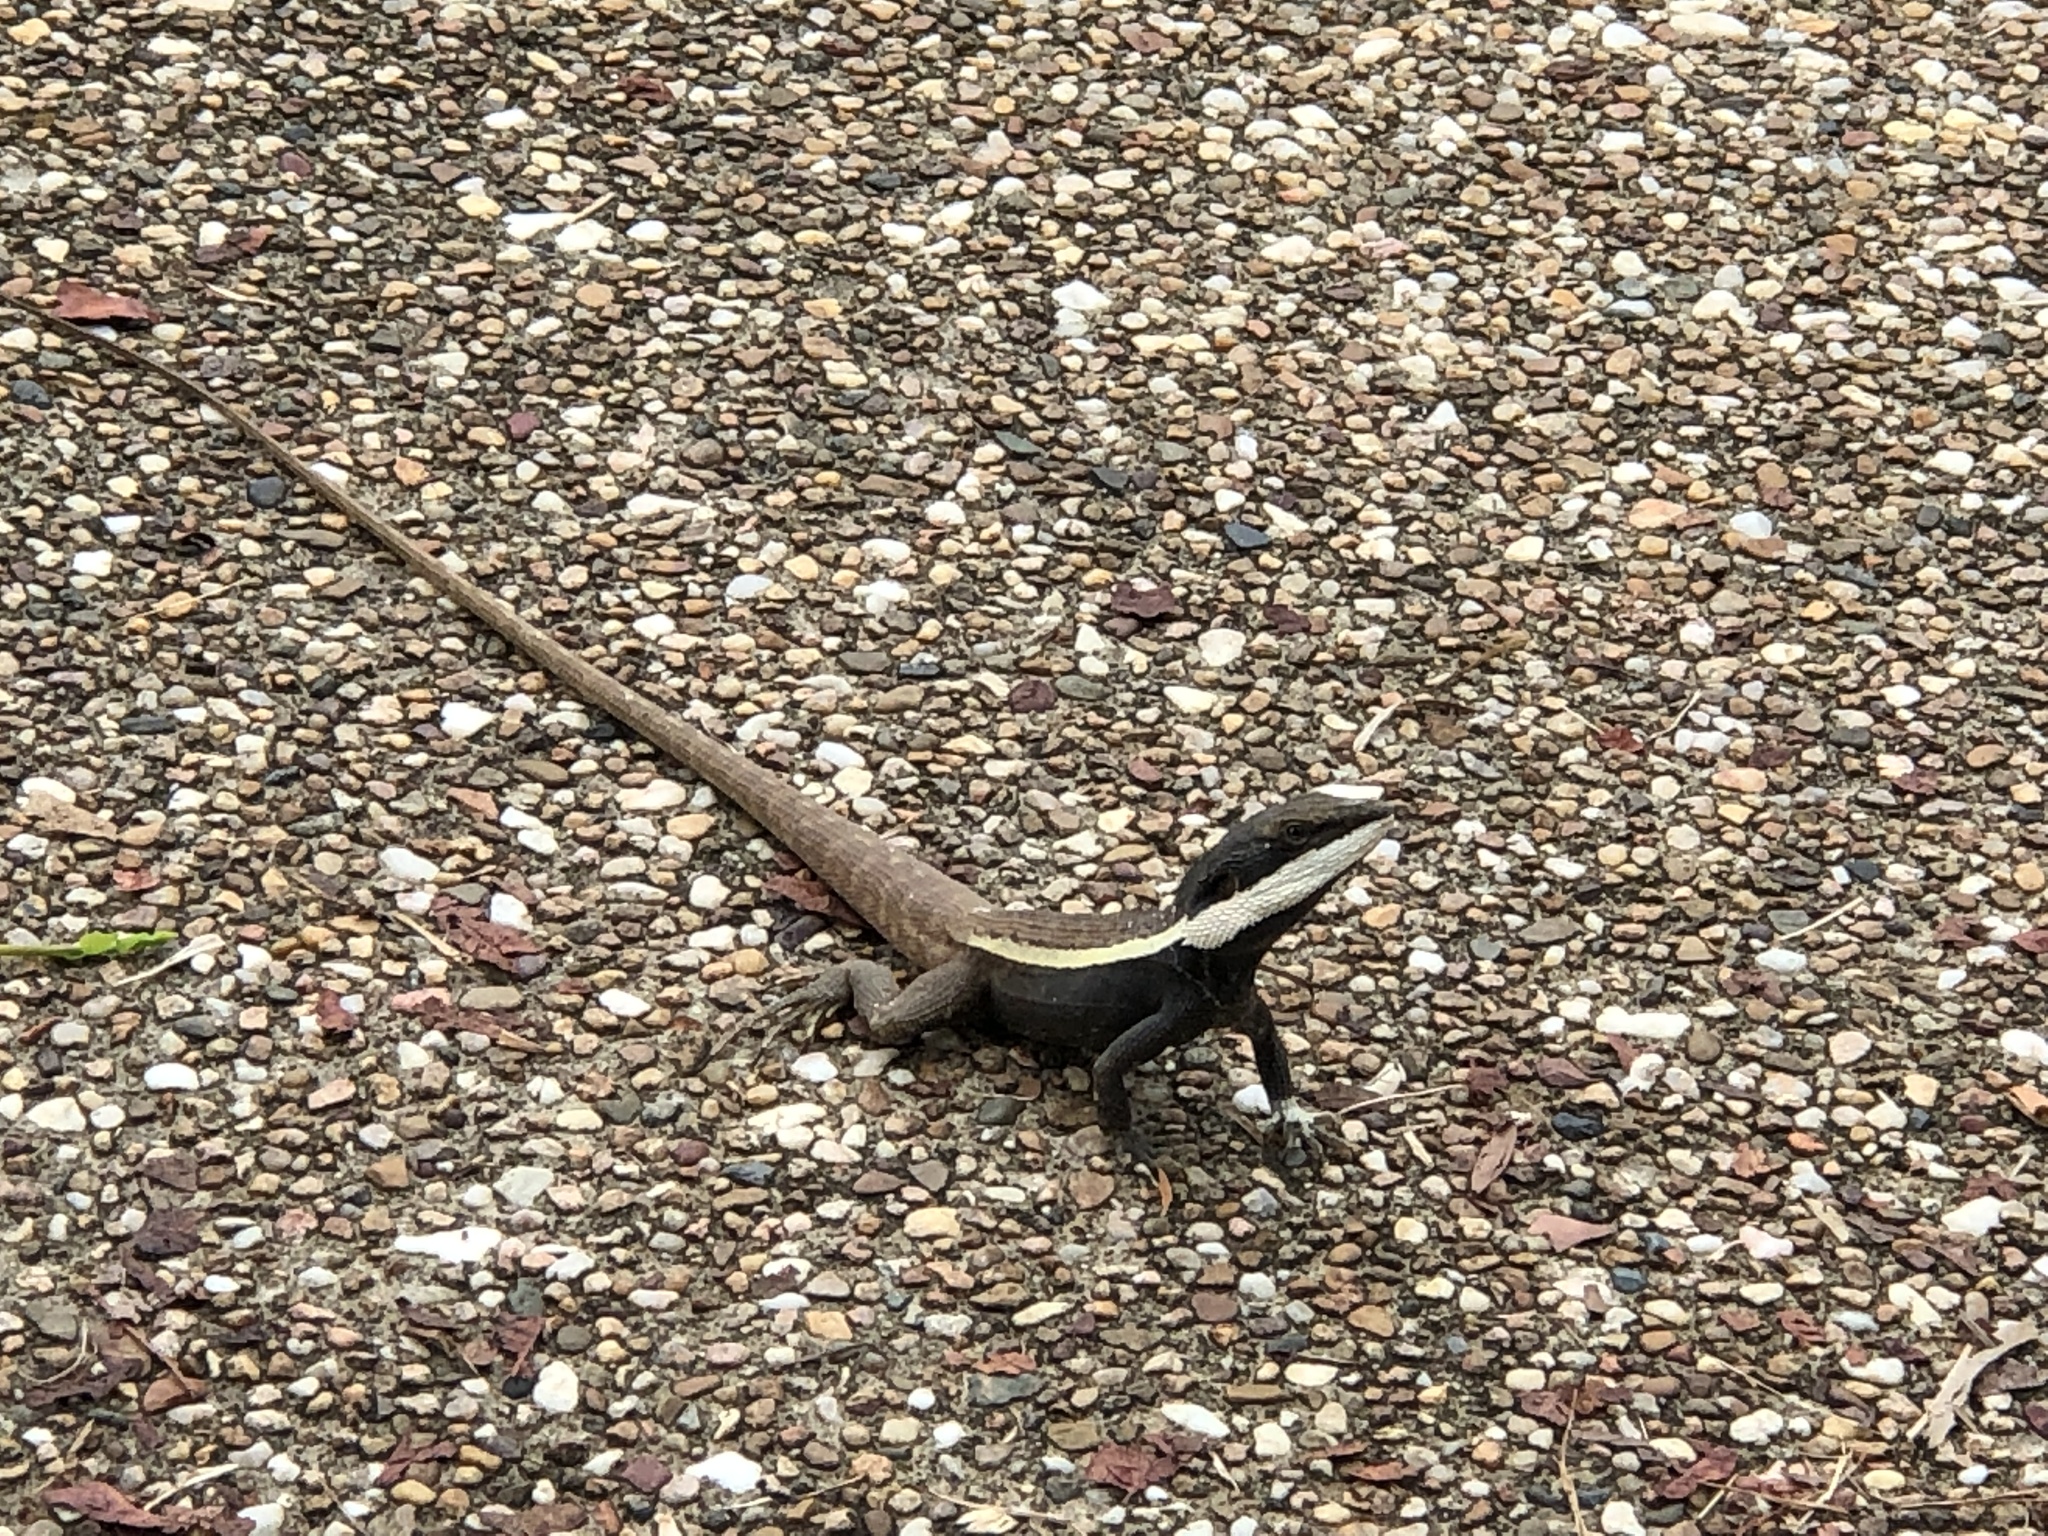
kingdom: Animalia
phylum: Chordata
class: Squamata
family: Agamidae
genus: Lophognathus
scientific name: Lophognathus horneri
